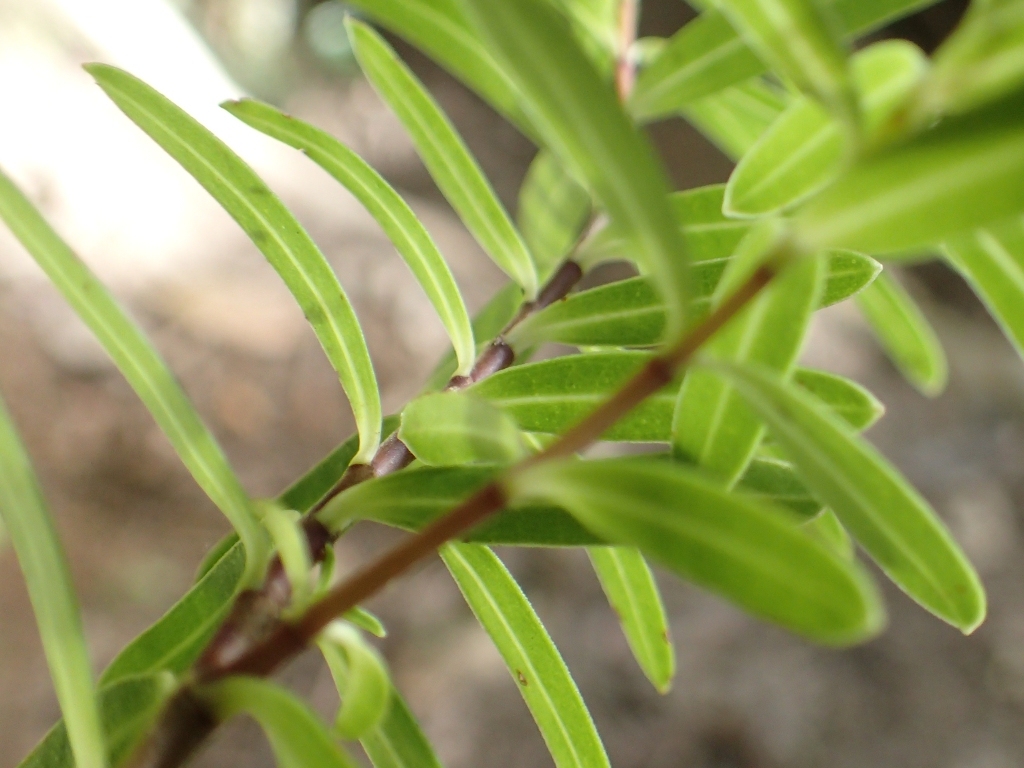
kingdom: Plantae
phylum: Tracheophyta
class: Magnoliopsida
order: Lamiales
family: Plantaginaceae
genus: Veronica
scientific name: Veronica parviflora
